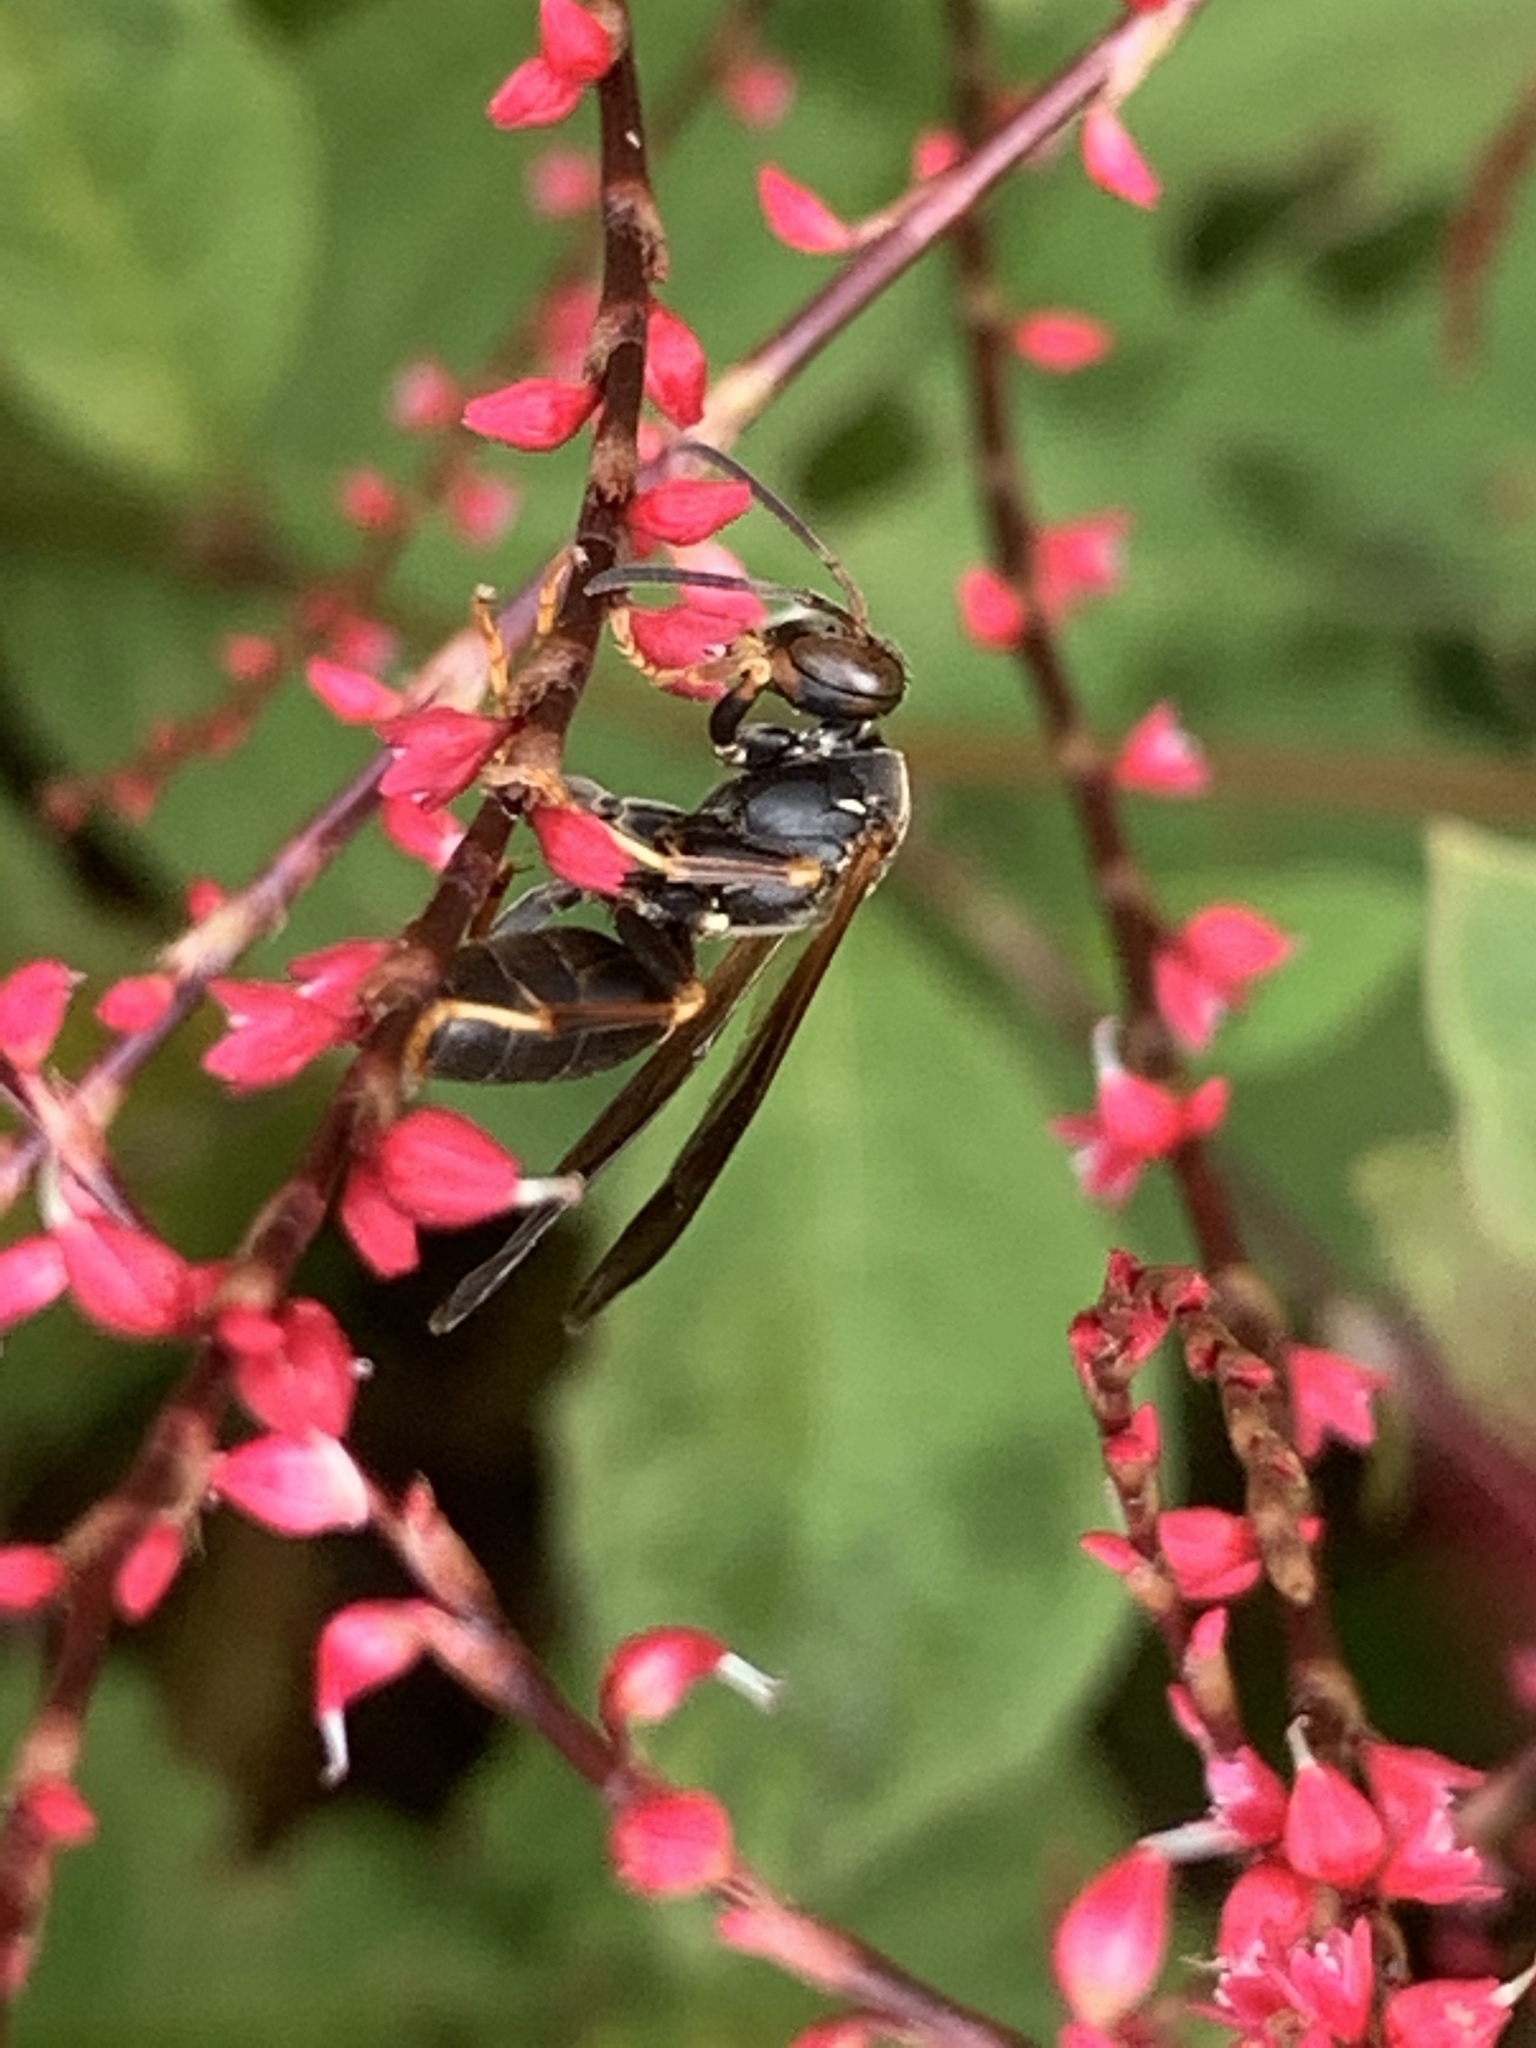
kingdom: Animalia
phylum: Arthropoda
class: Insecta
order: Hymenoptera
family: Eumenidae
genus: Polistes
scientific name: Polistes fuscatus
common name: Dark paper wasp
